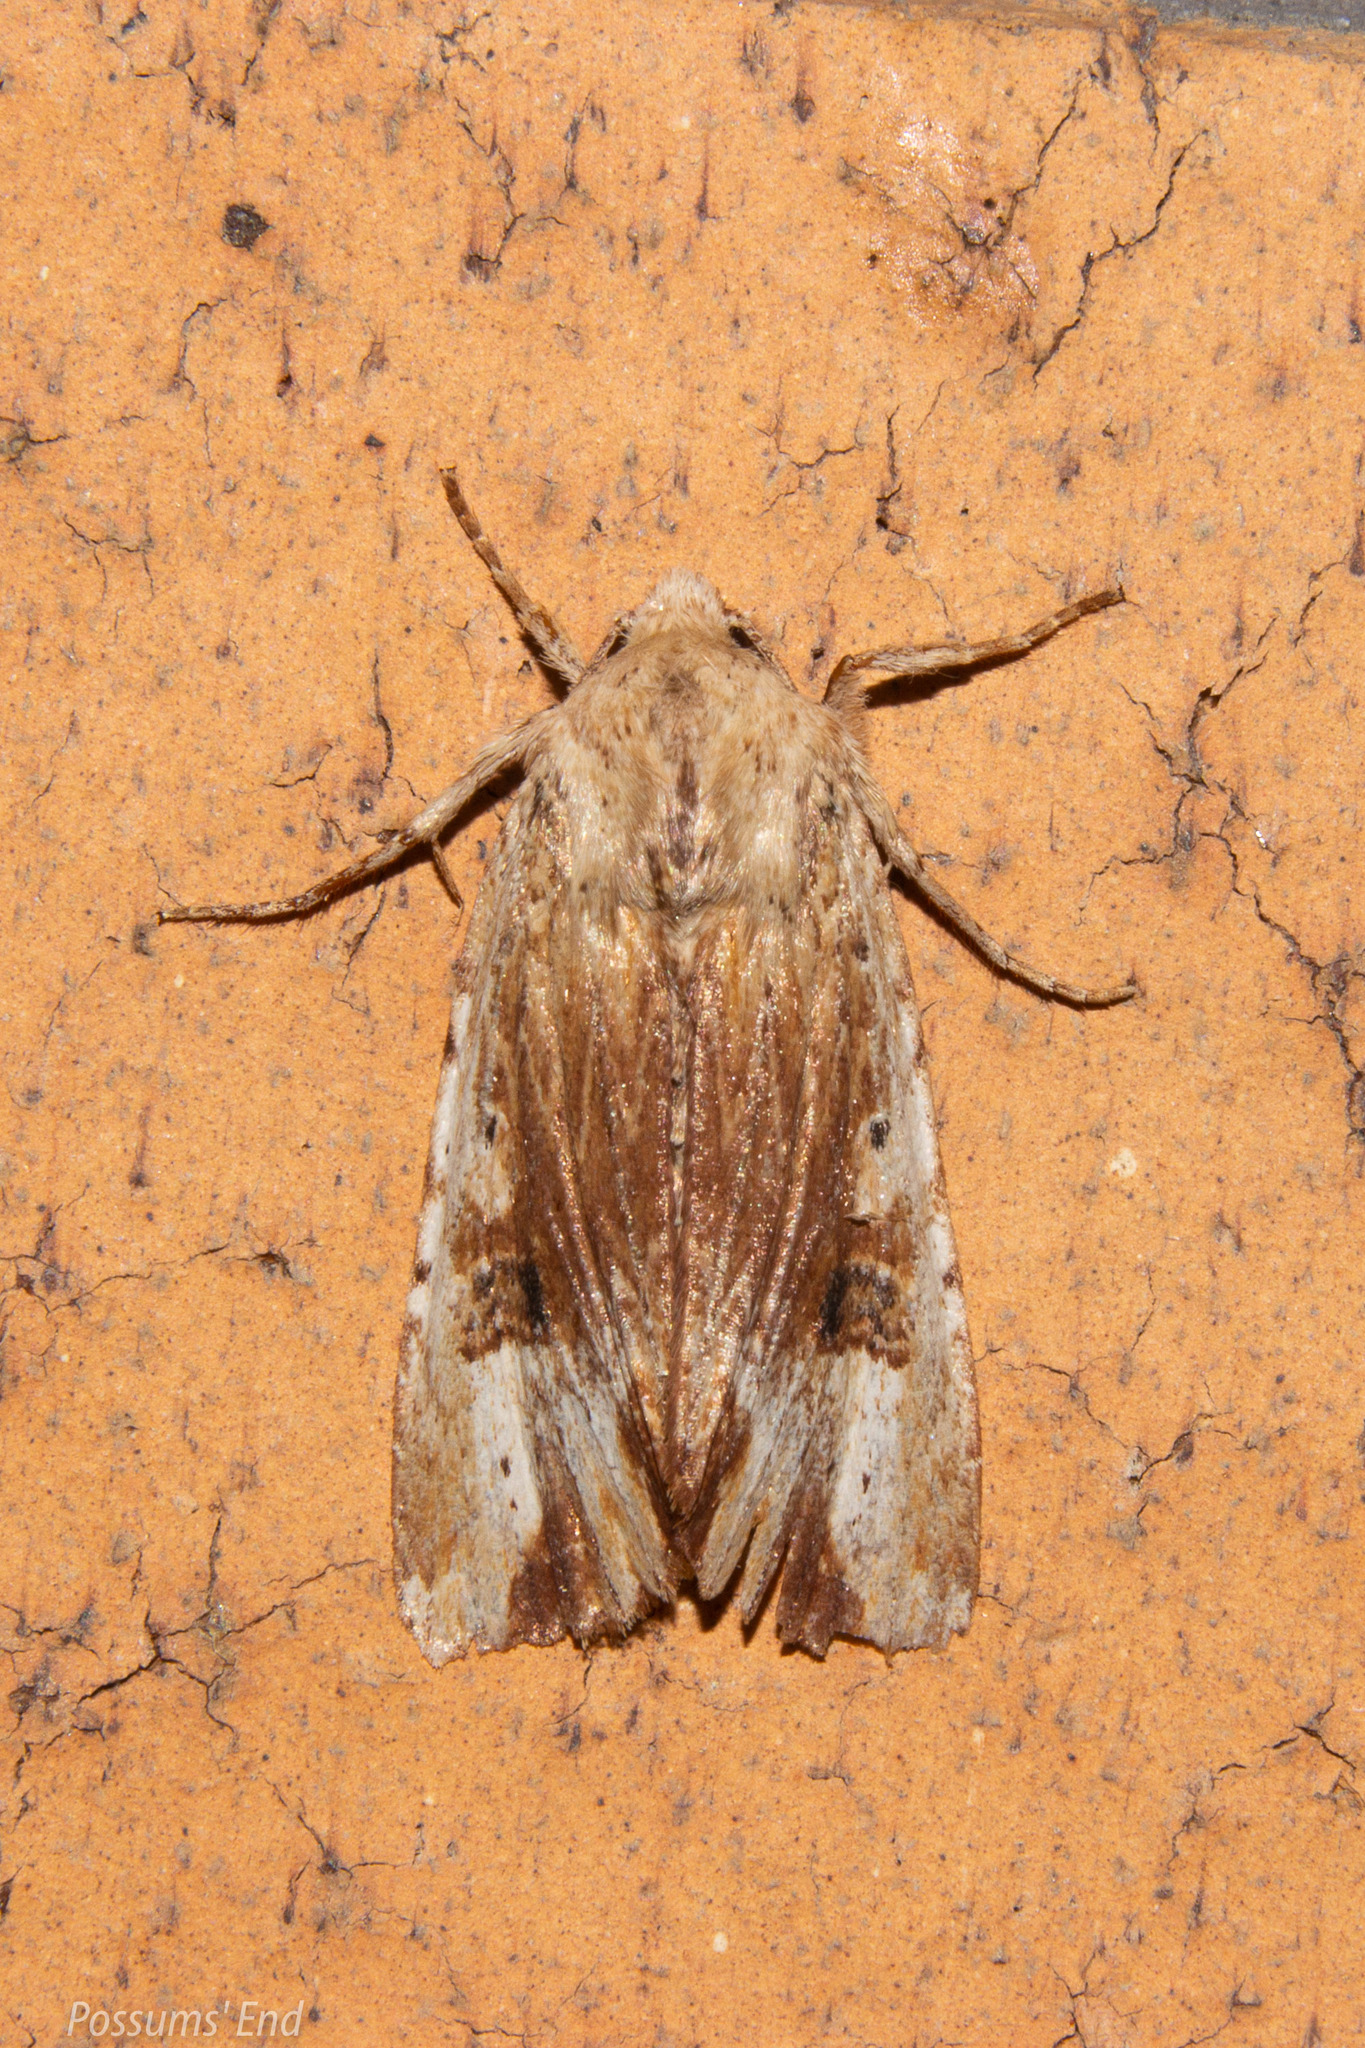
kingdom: Animalia
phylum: Arthropoda
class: Insecta
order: Lepidoptera
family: Noctuidae
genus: Ichneutica
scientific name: Ichneutica
